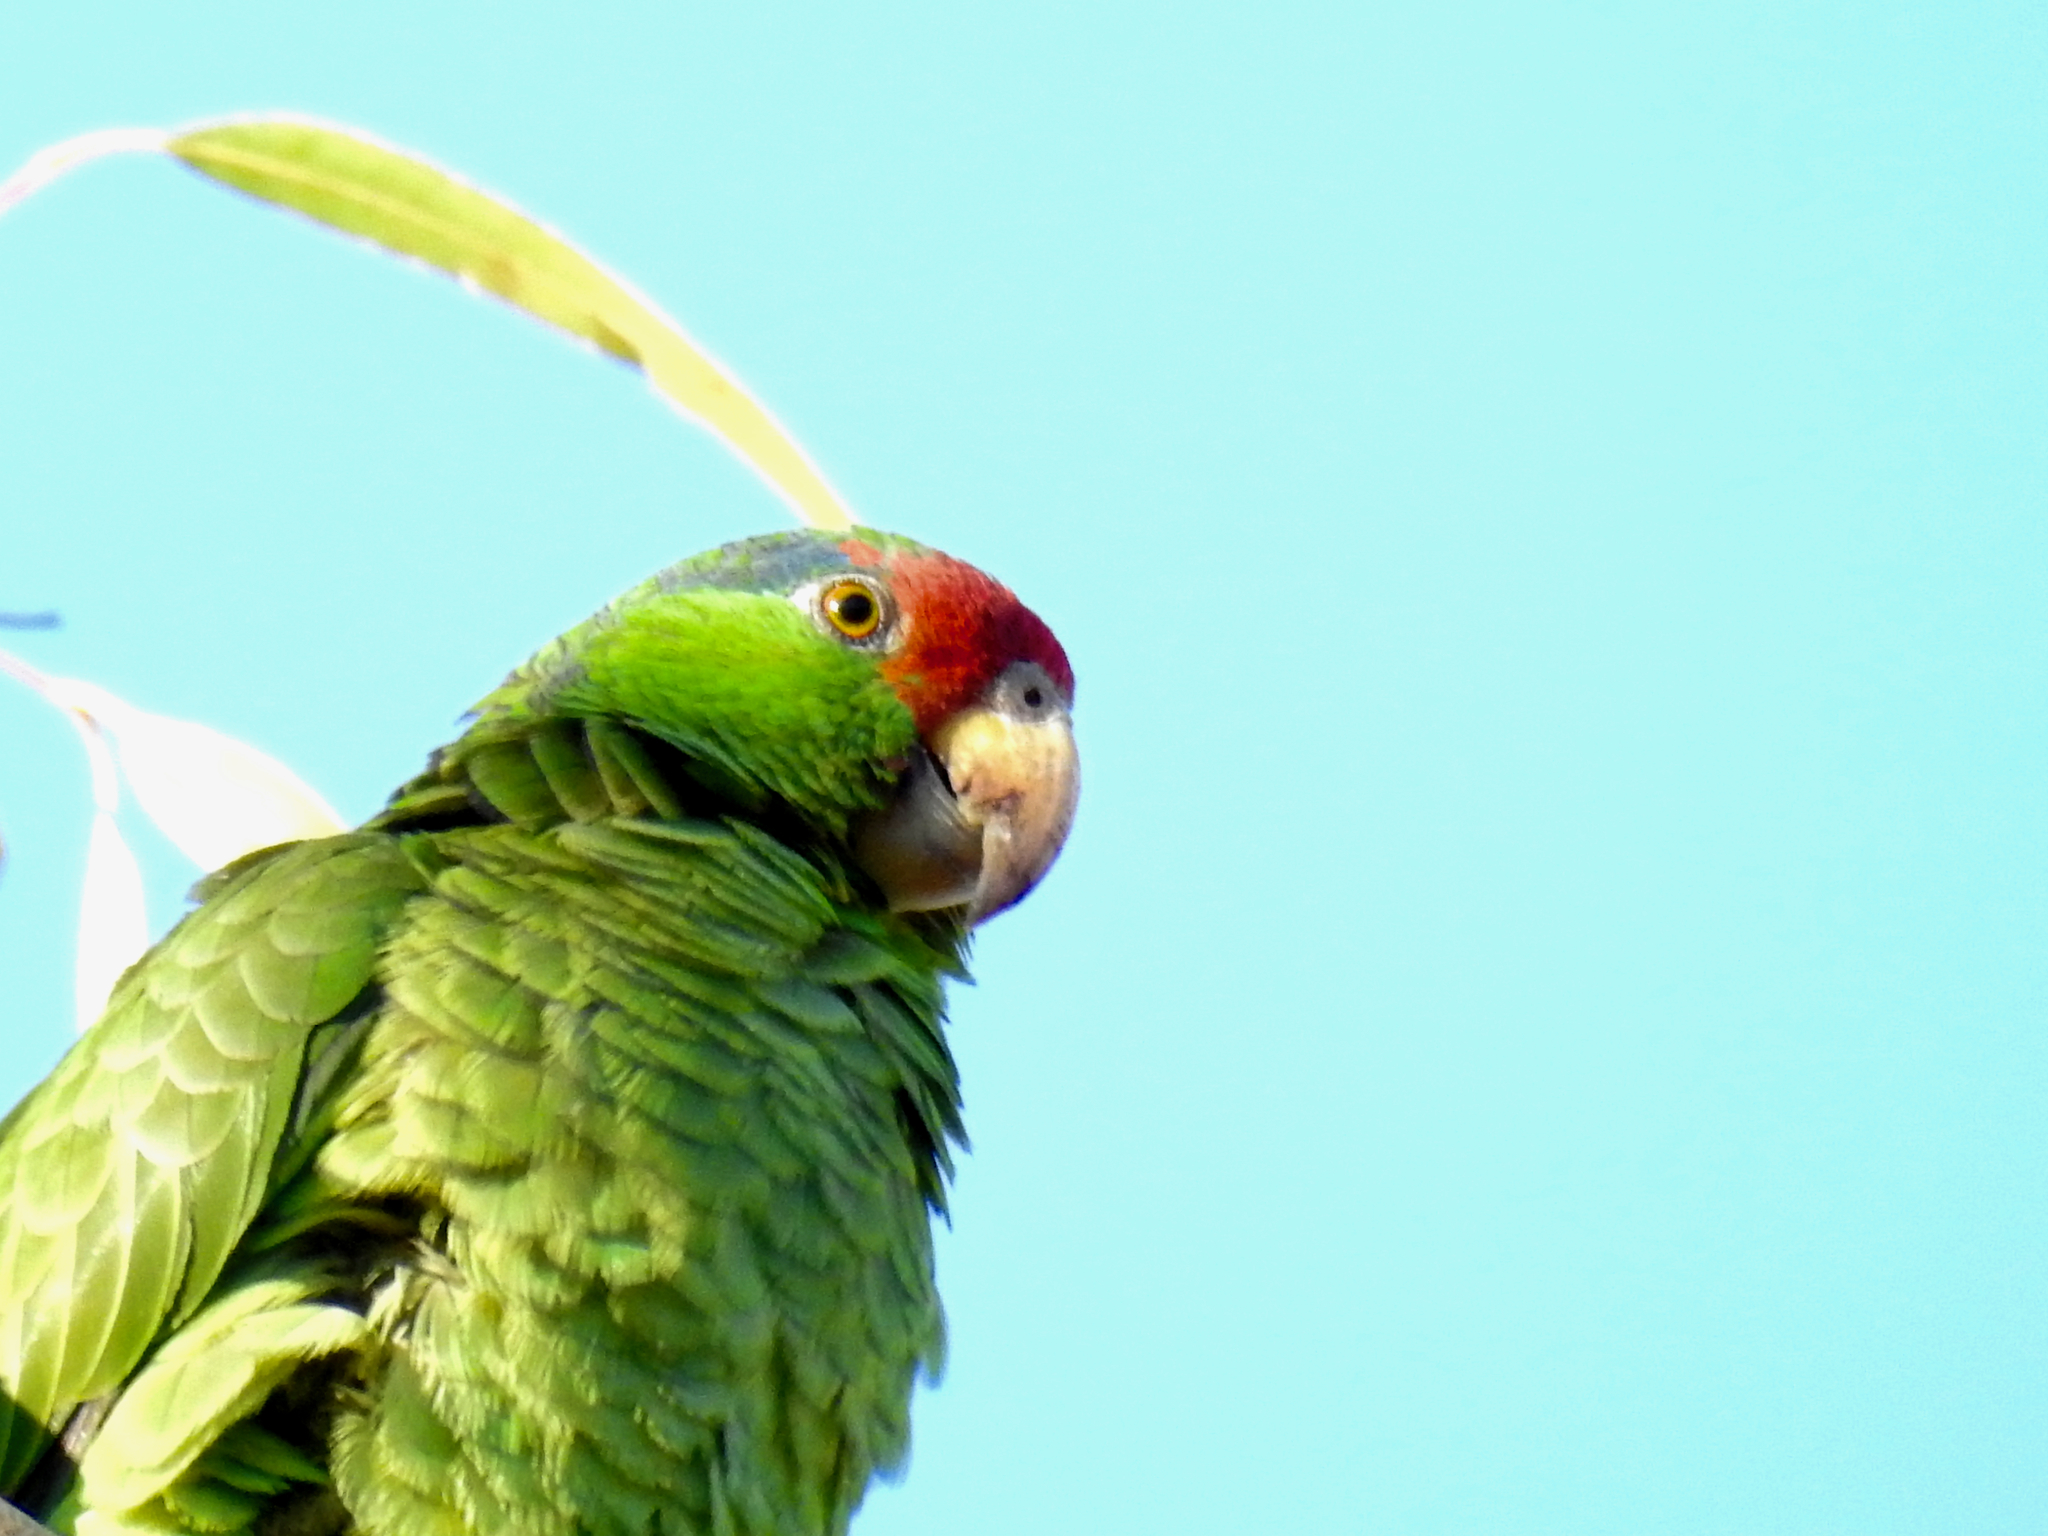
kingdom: Animalia
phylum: Chordata
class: Aves
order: Psittaciformes
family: Psittacidae
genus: Amazona
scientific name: Amazona viridigenalis
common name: Red-crowned amazon
